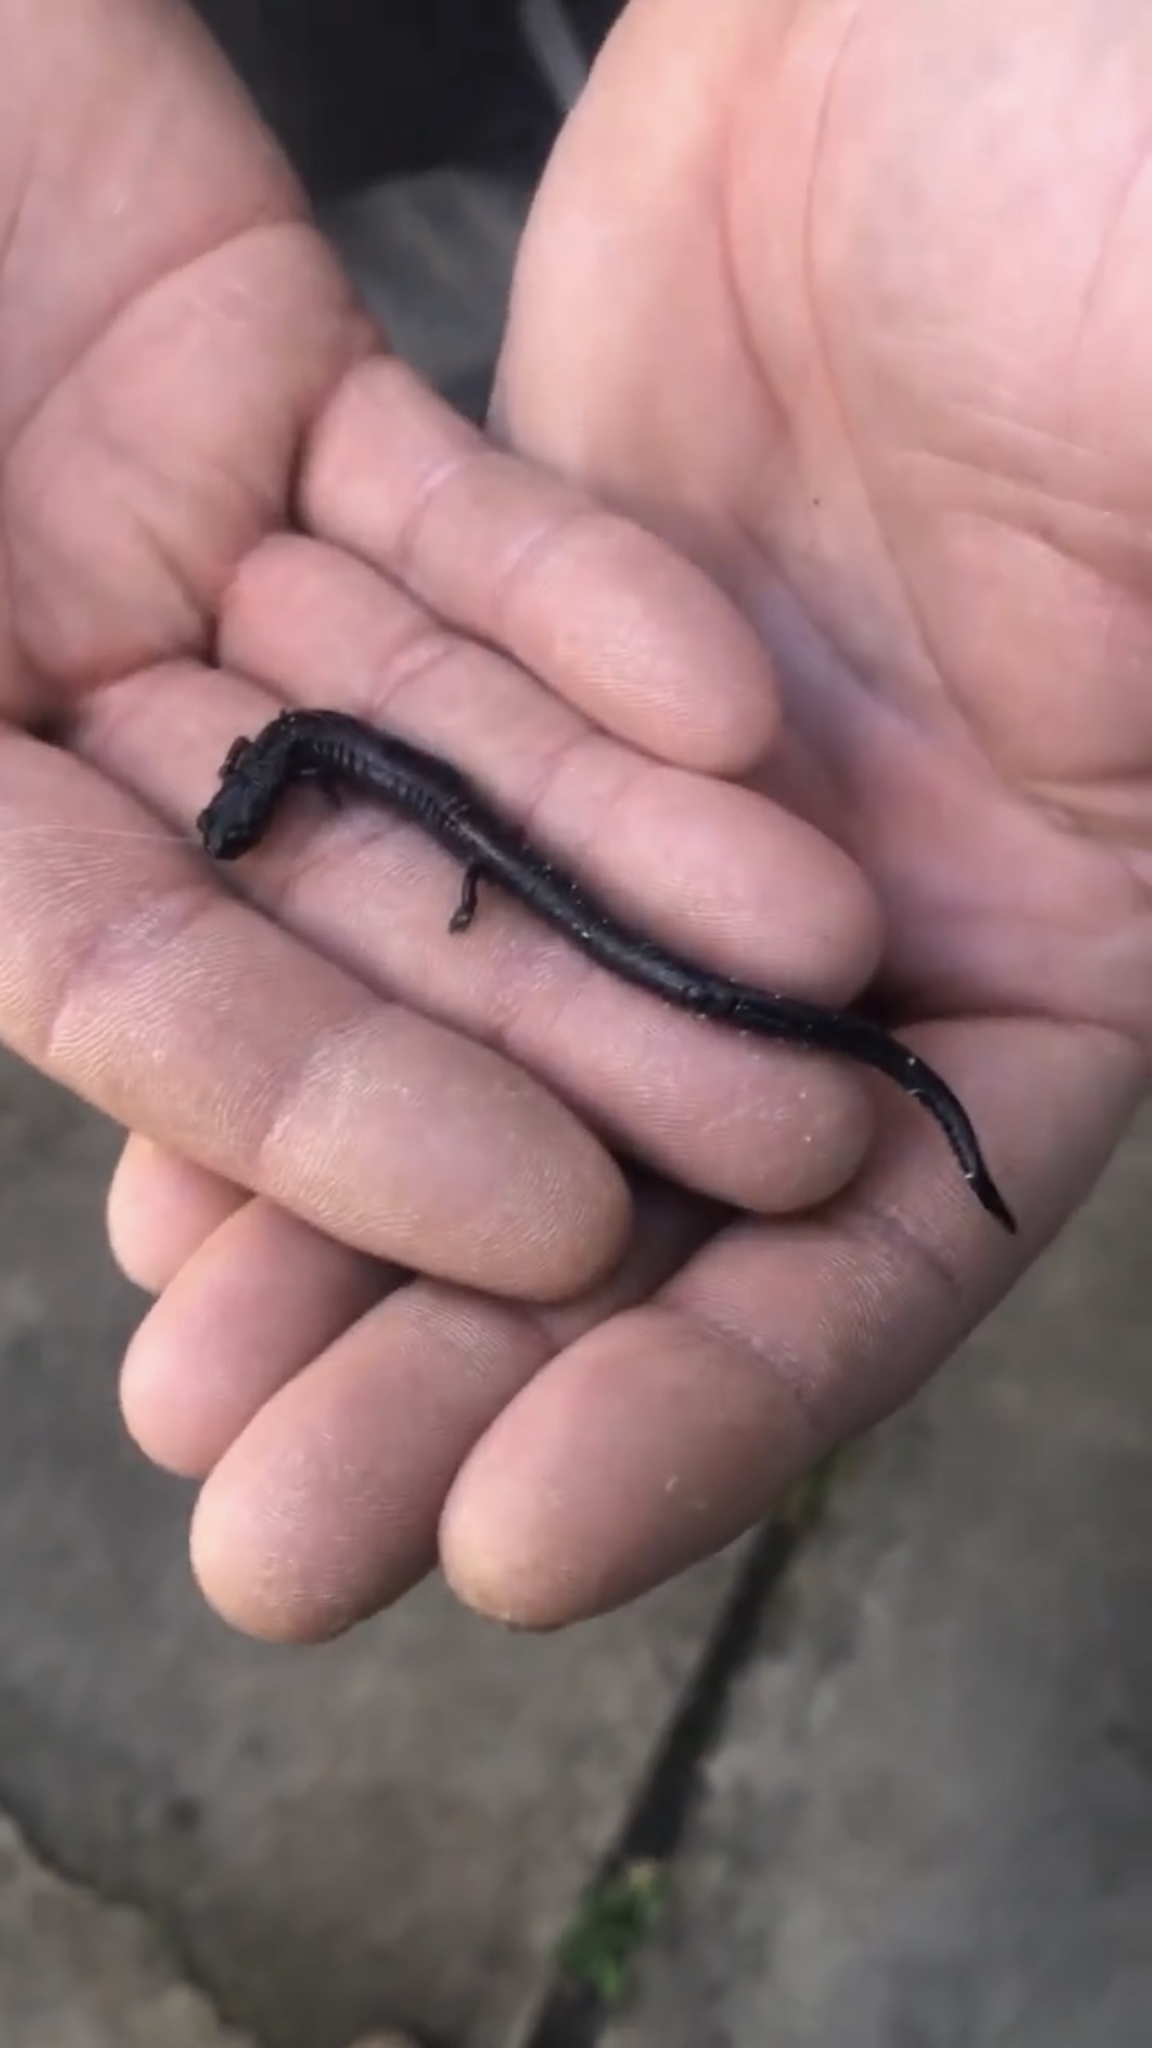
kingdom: Animalia
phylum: Chordata
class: Amphibia
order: Caudata
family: Plethodontidae
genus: Batrachoseps
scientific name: Batrachoseps luciae
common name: Santa lucia mountains slender salamander
